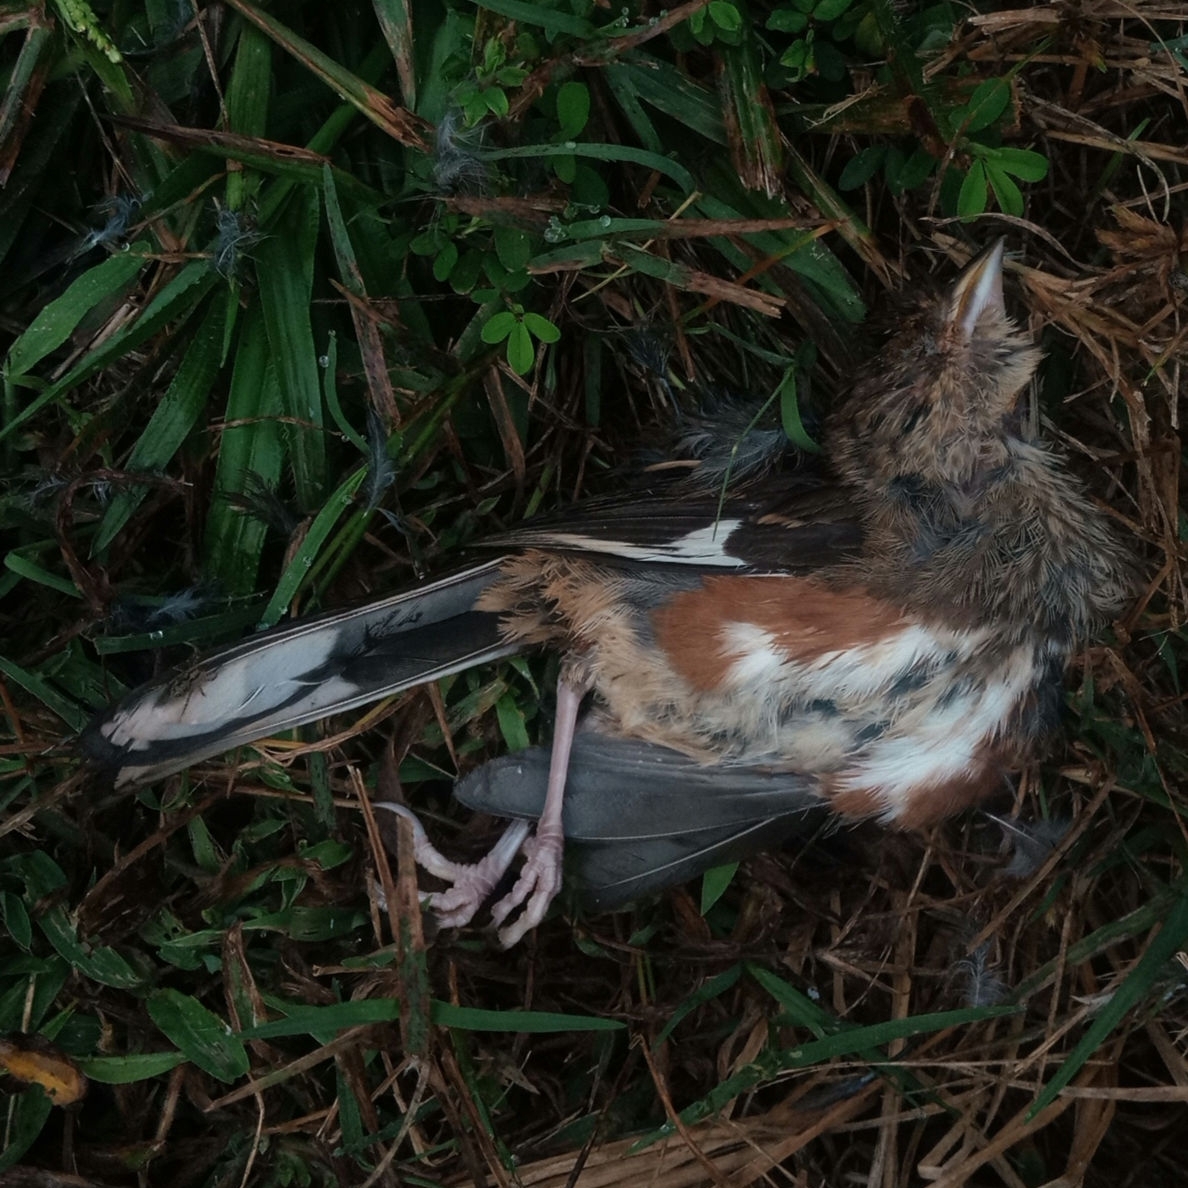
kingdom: Animalia
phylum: Chordata
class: Aves
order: Passeriformes
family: Passerellidae
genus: Pipilo
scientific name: Pipilo erythrophthalmus
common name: Eastern towhee
